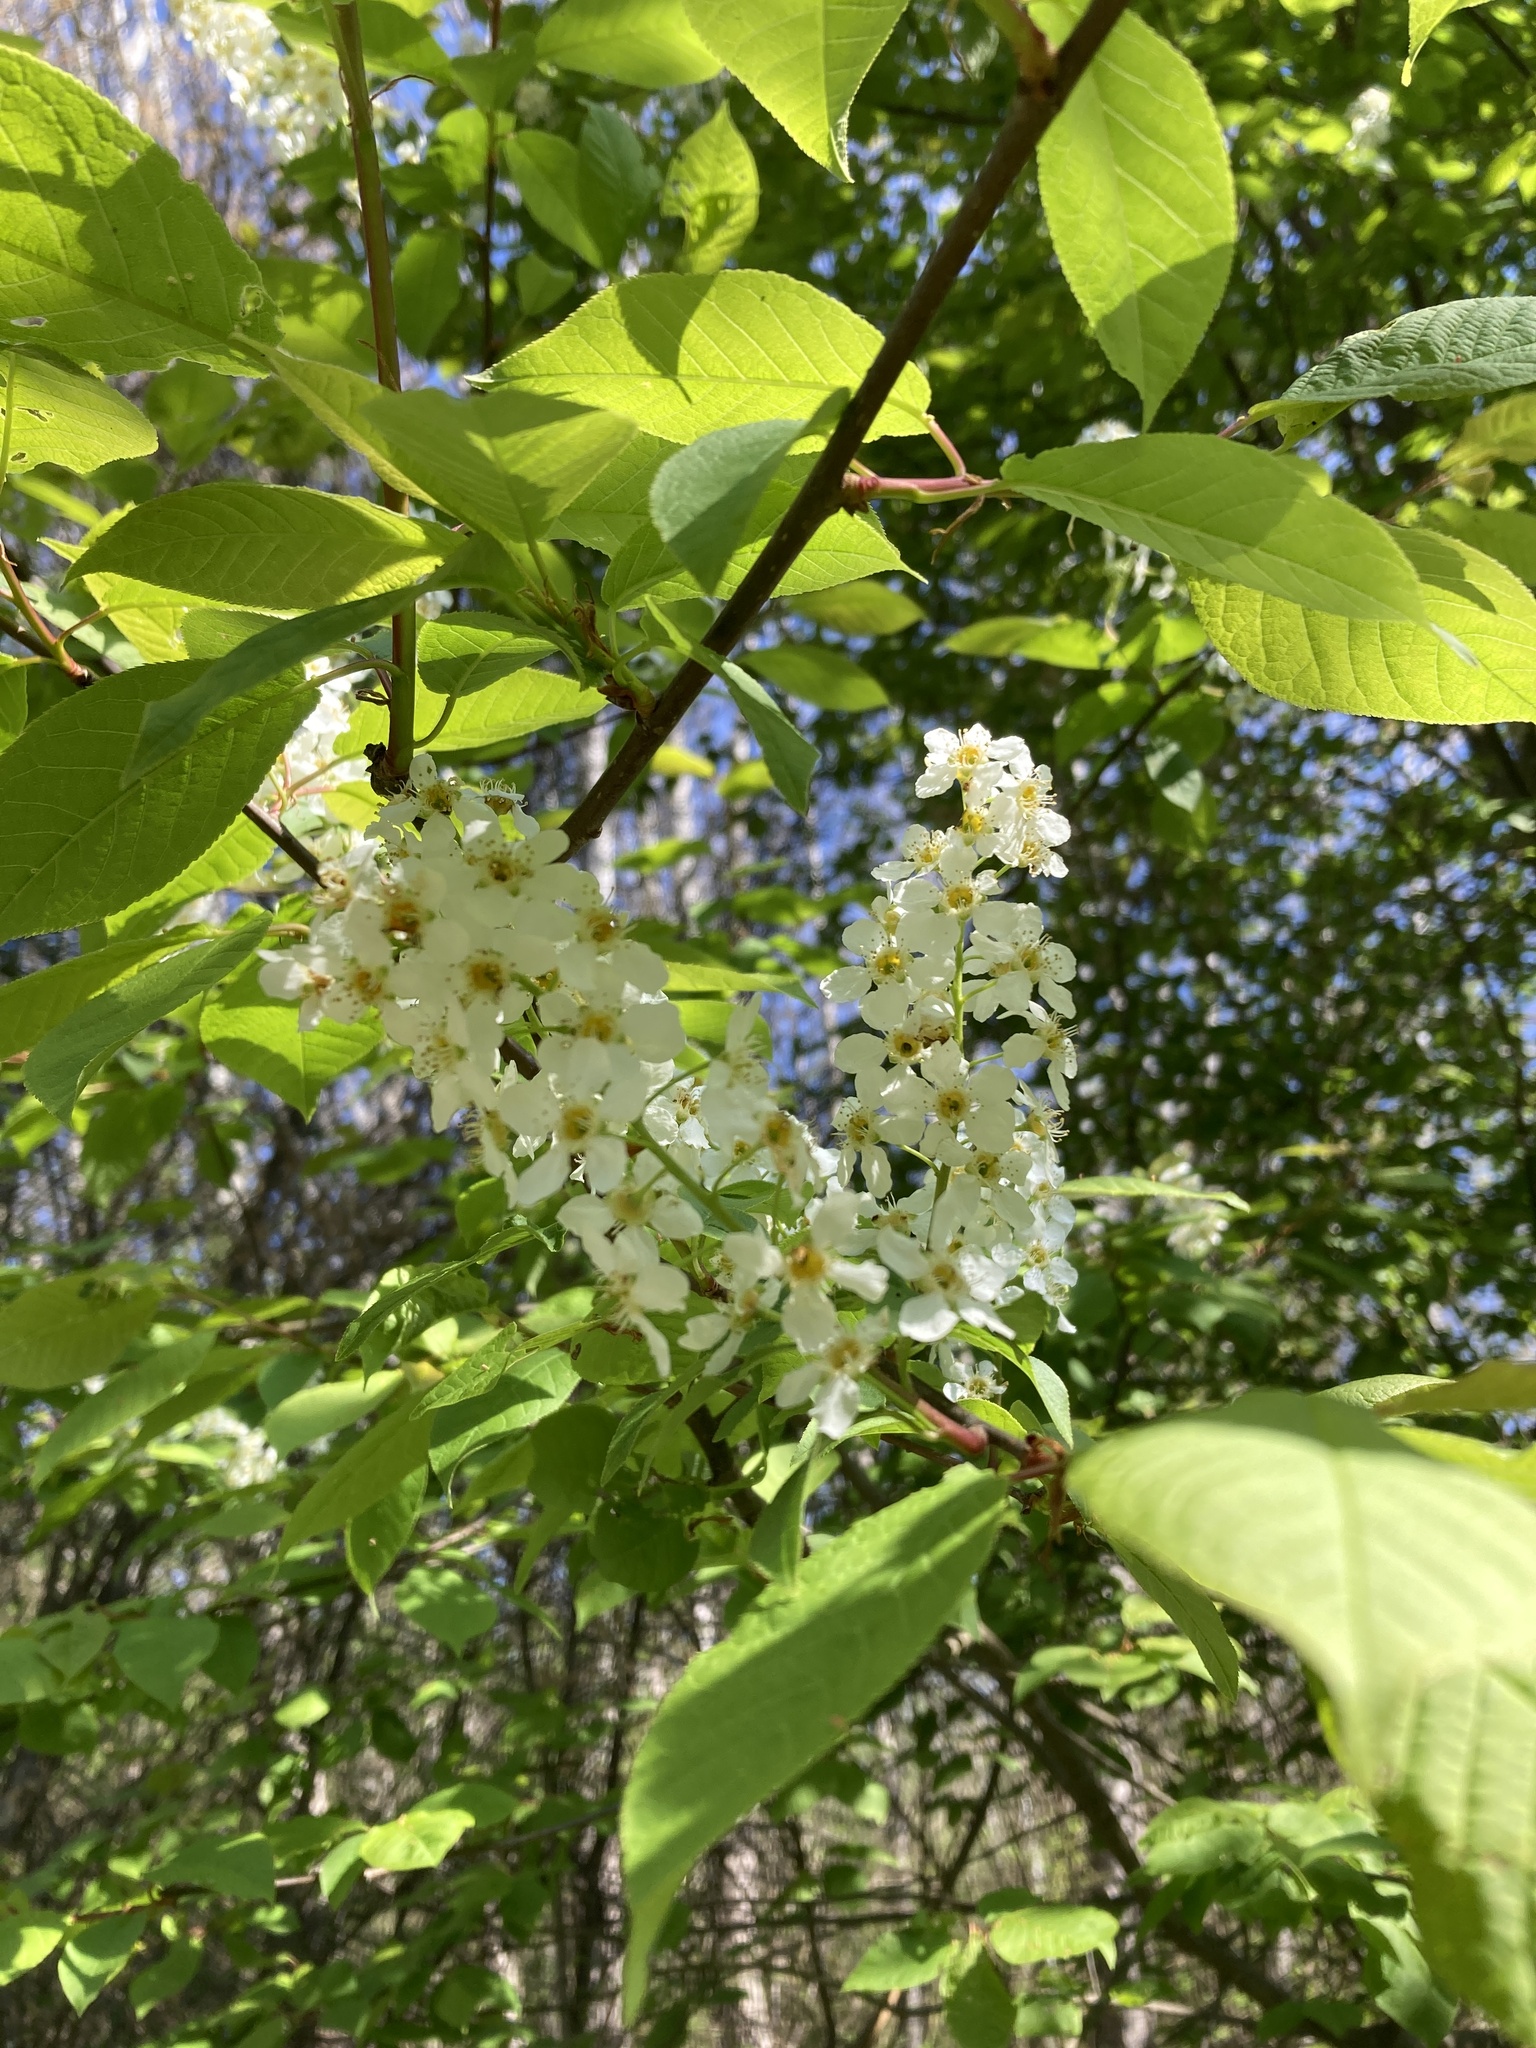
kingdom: Plantae
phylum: Tracheophyta
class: Magnoliopsida
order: Rosales
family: Rosaceae
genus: Prunus
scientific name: Prunus padus
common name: Bird cherry
